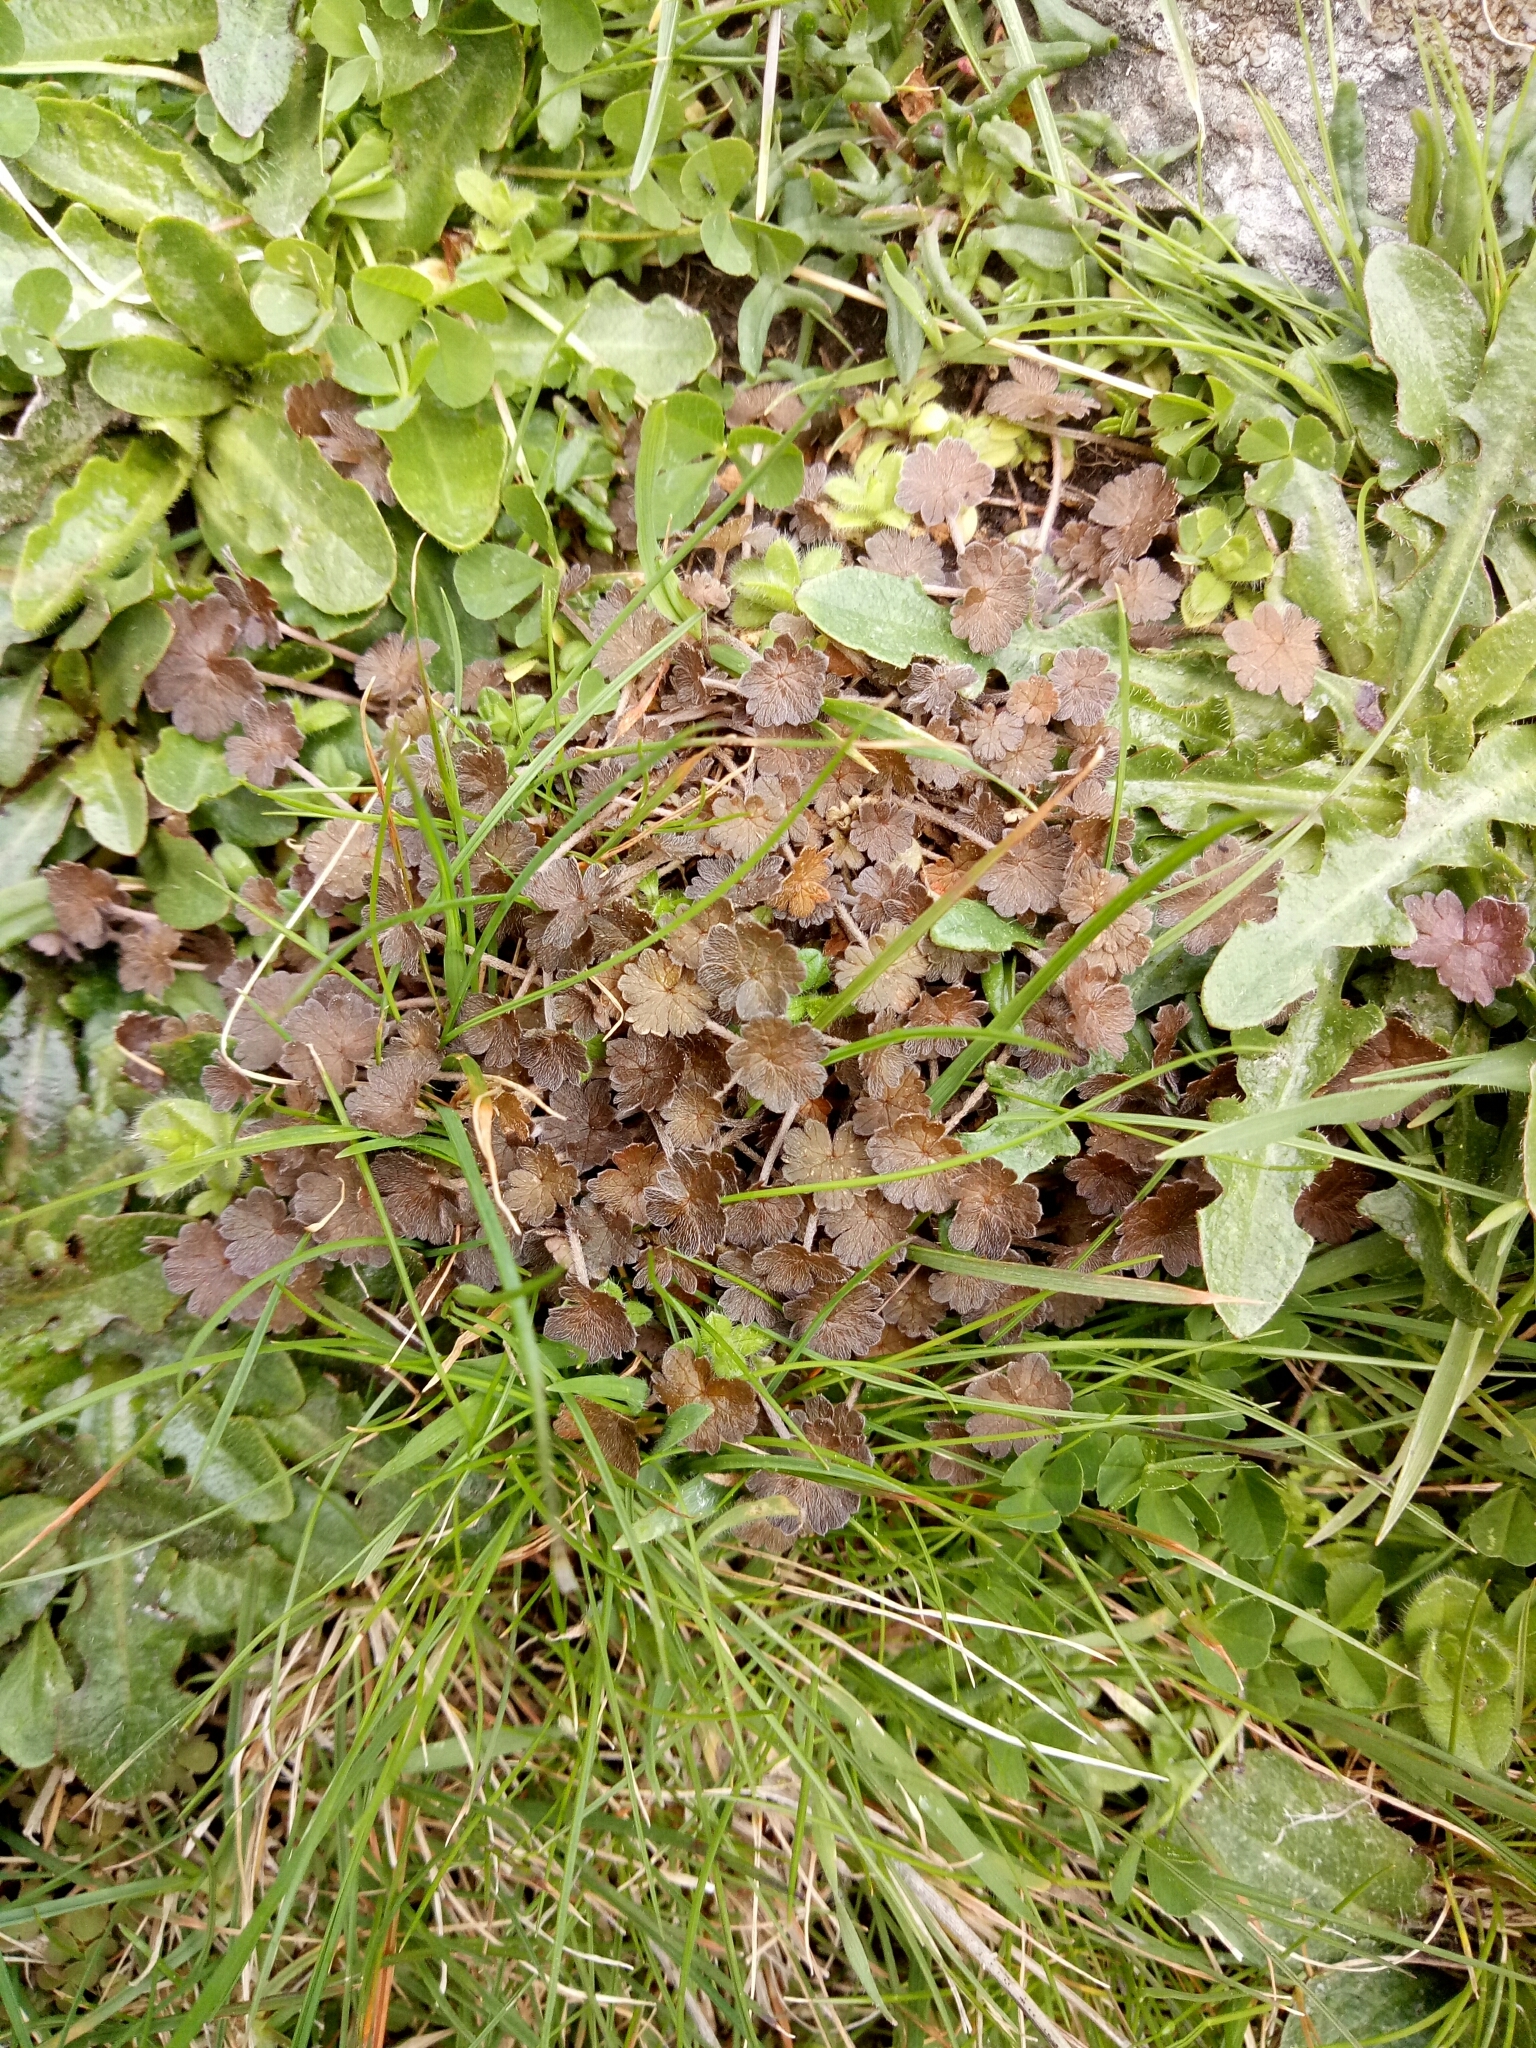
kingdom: Plantae
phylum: Tracheophyta
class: Magnoliopsida
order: Geraniales
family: Geraniaceae
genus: Geranium
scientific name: Geranium brevicaule
